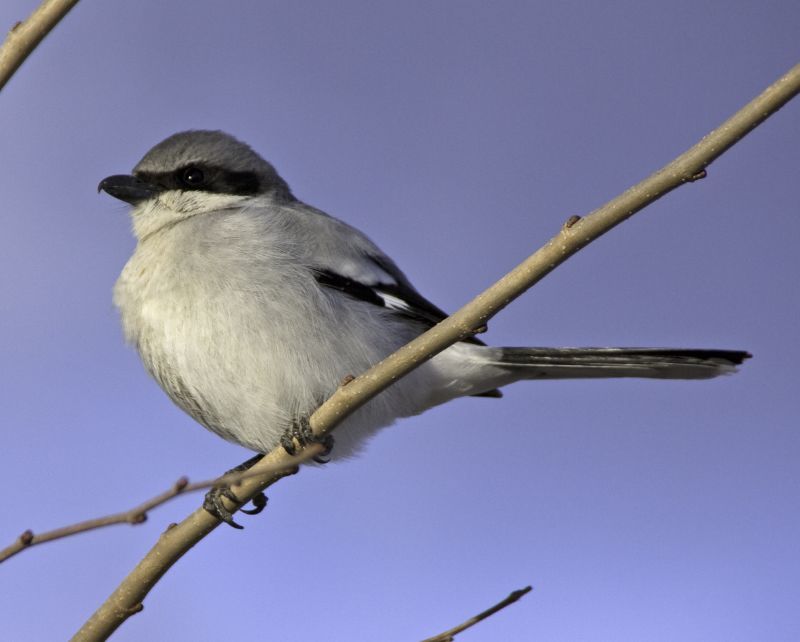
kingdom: Animalia
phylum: Chordata
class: Aves
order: Passeriformes
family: Laniidae
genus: Lanius
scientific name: Lanius ludovicianus
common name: Loggerhead shrike
